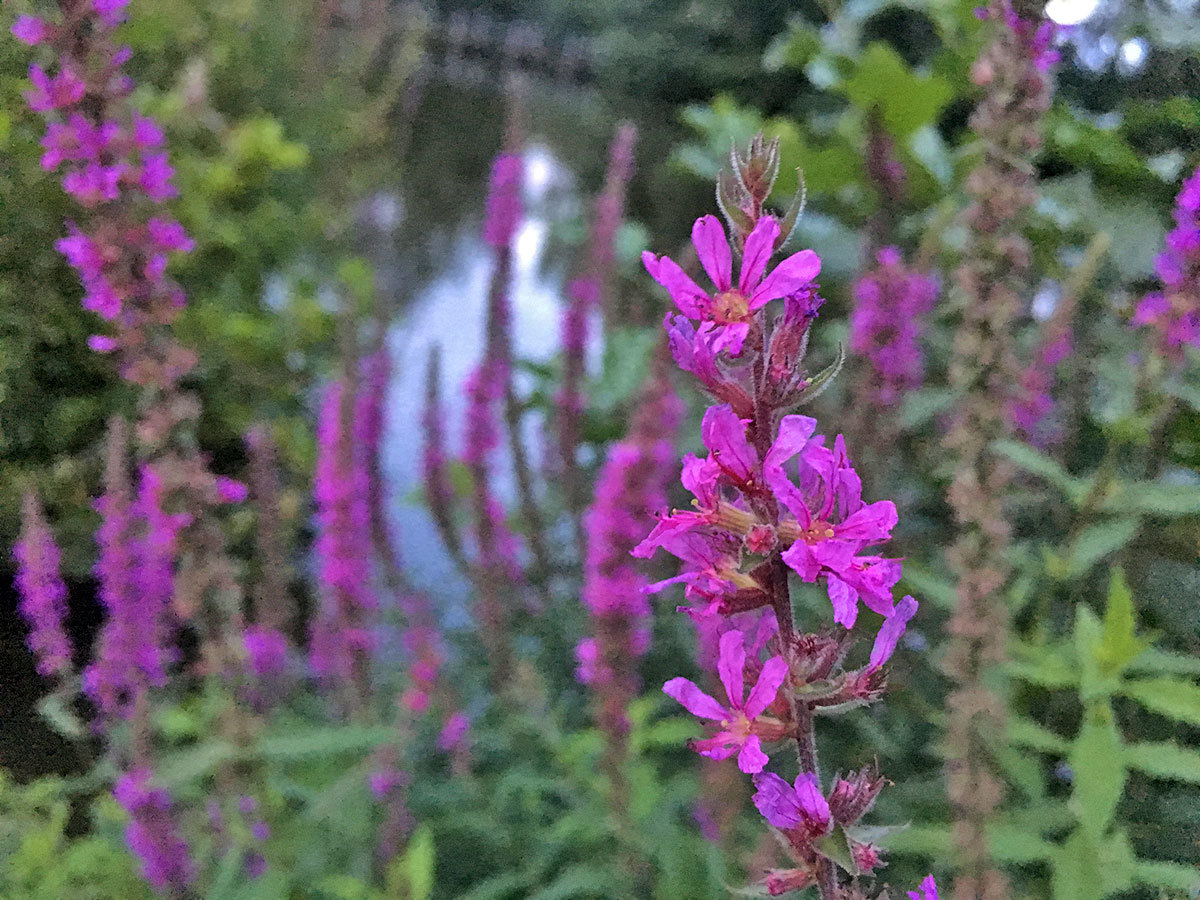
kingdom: Plantae
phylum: Tracheophyta
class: Magnoliopsida
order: Myrtales
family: Lythraceae
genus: Lythrum
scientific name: Lythrum salicaria
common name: Purple loosestrife
